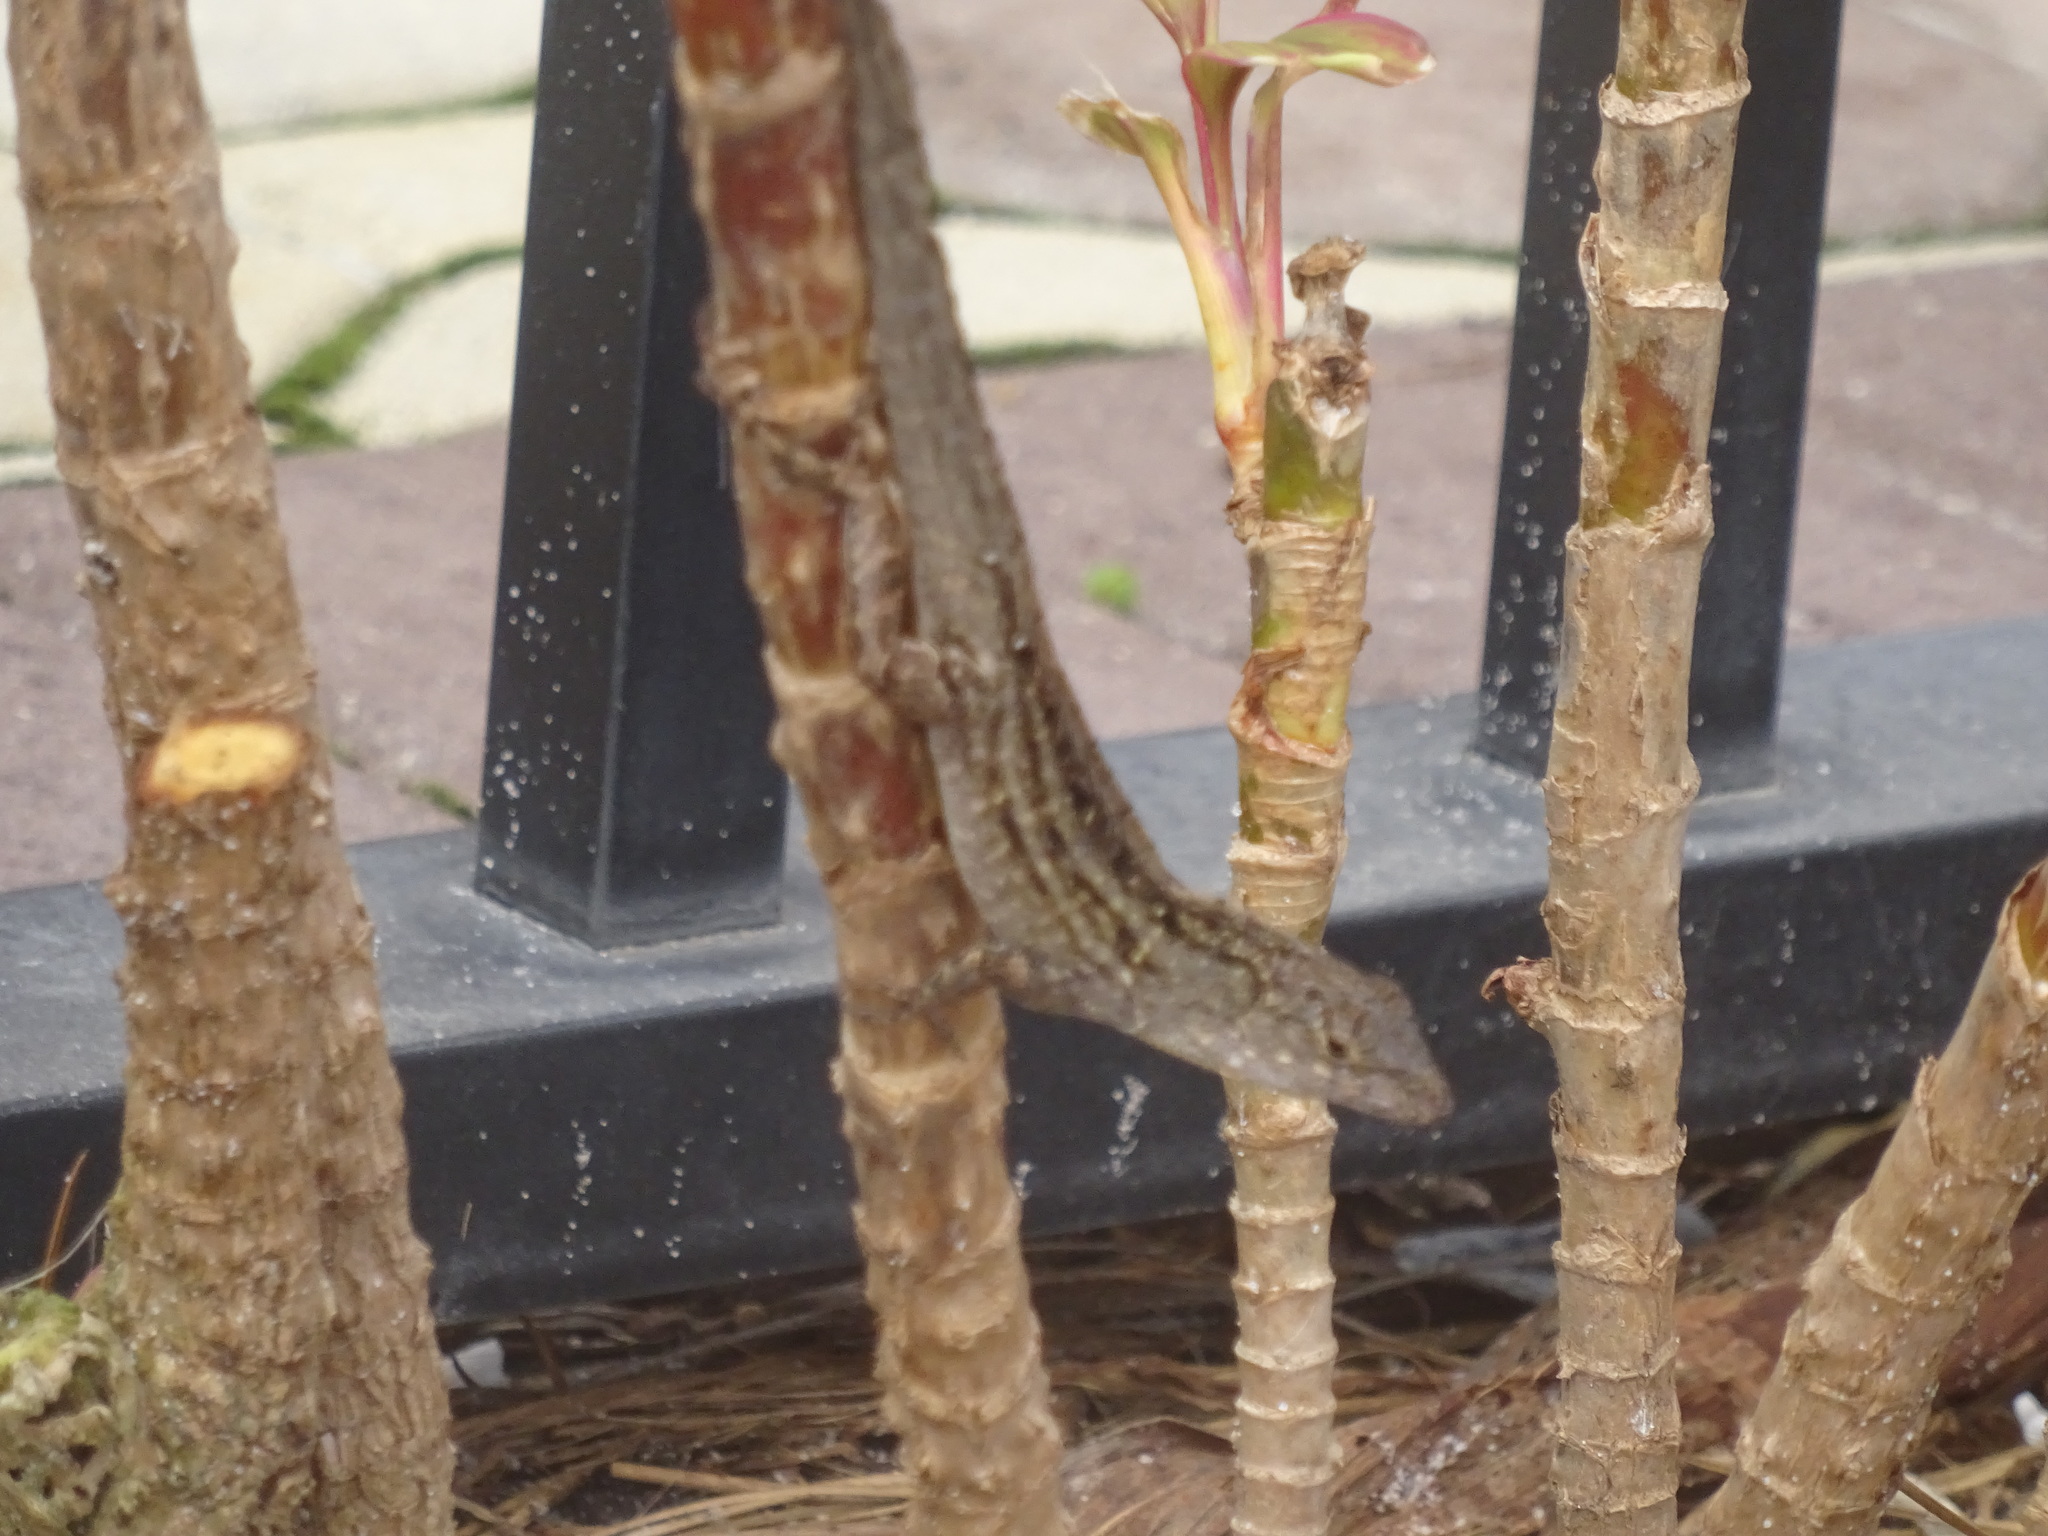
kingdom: Animalia
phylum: Chordata
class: Squamata
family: Dactyloidae
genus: Anolis
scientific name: Anolis sagrei
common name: Brown anole
